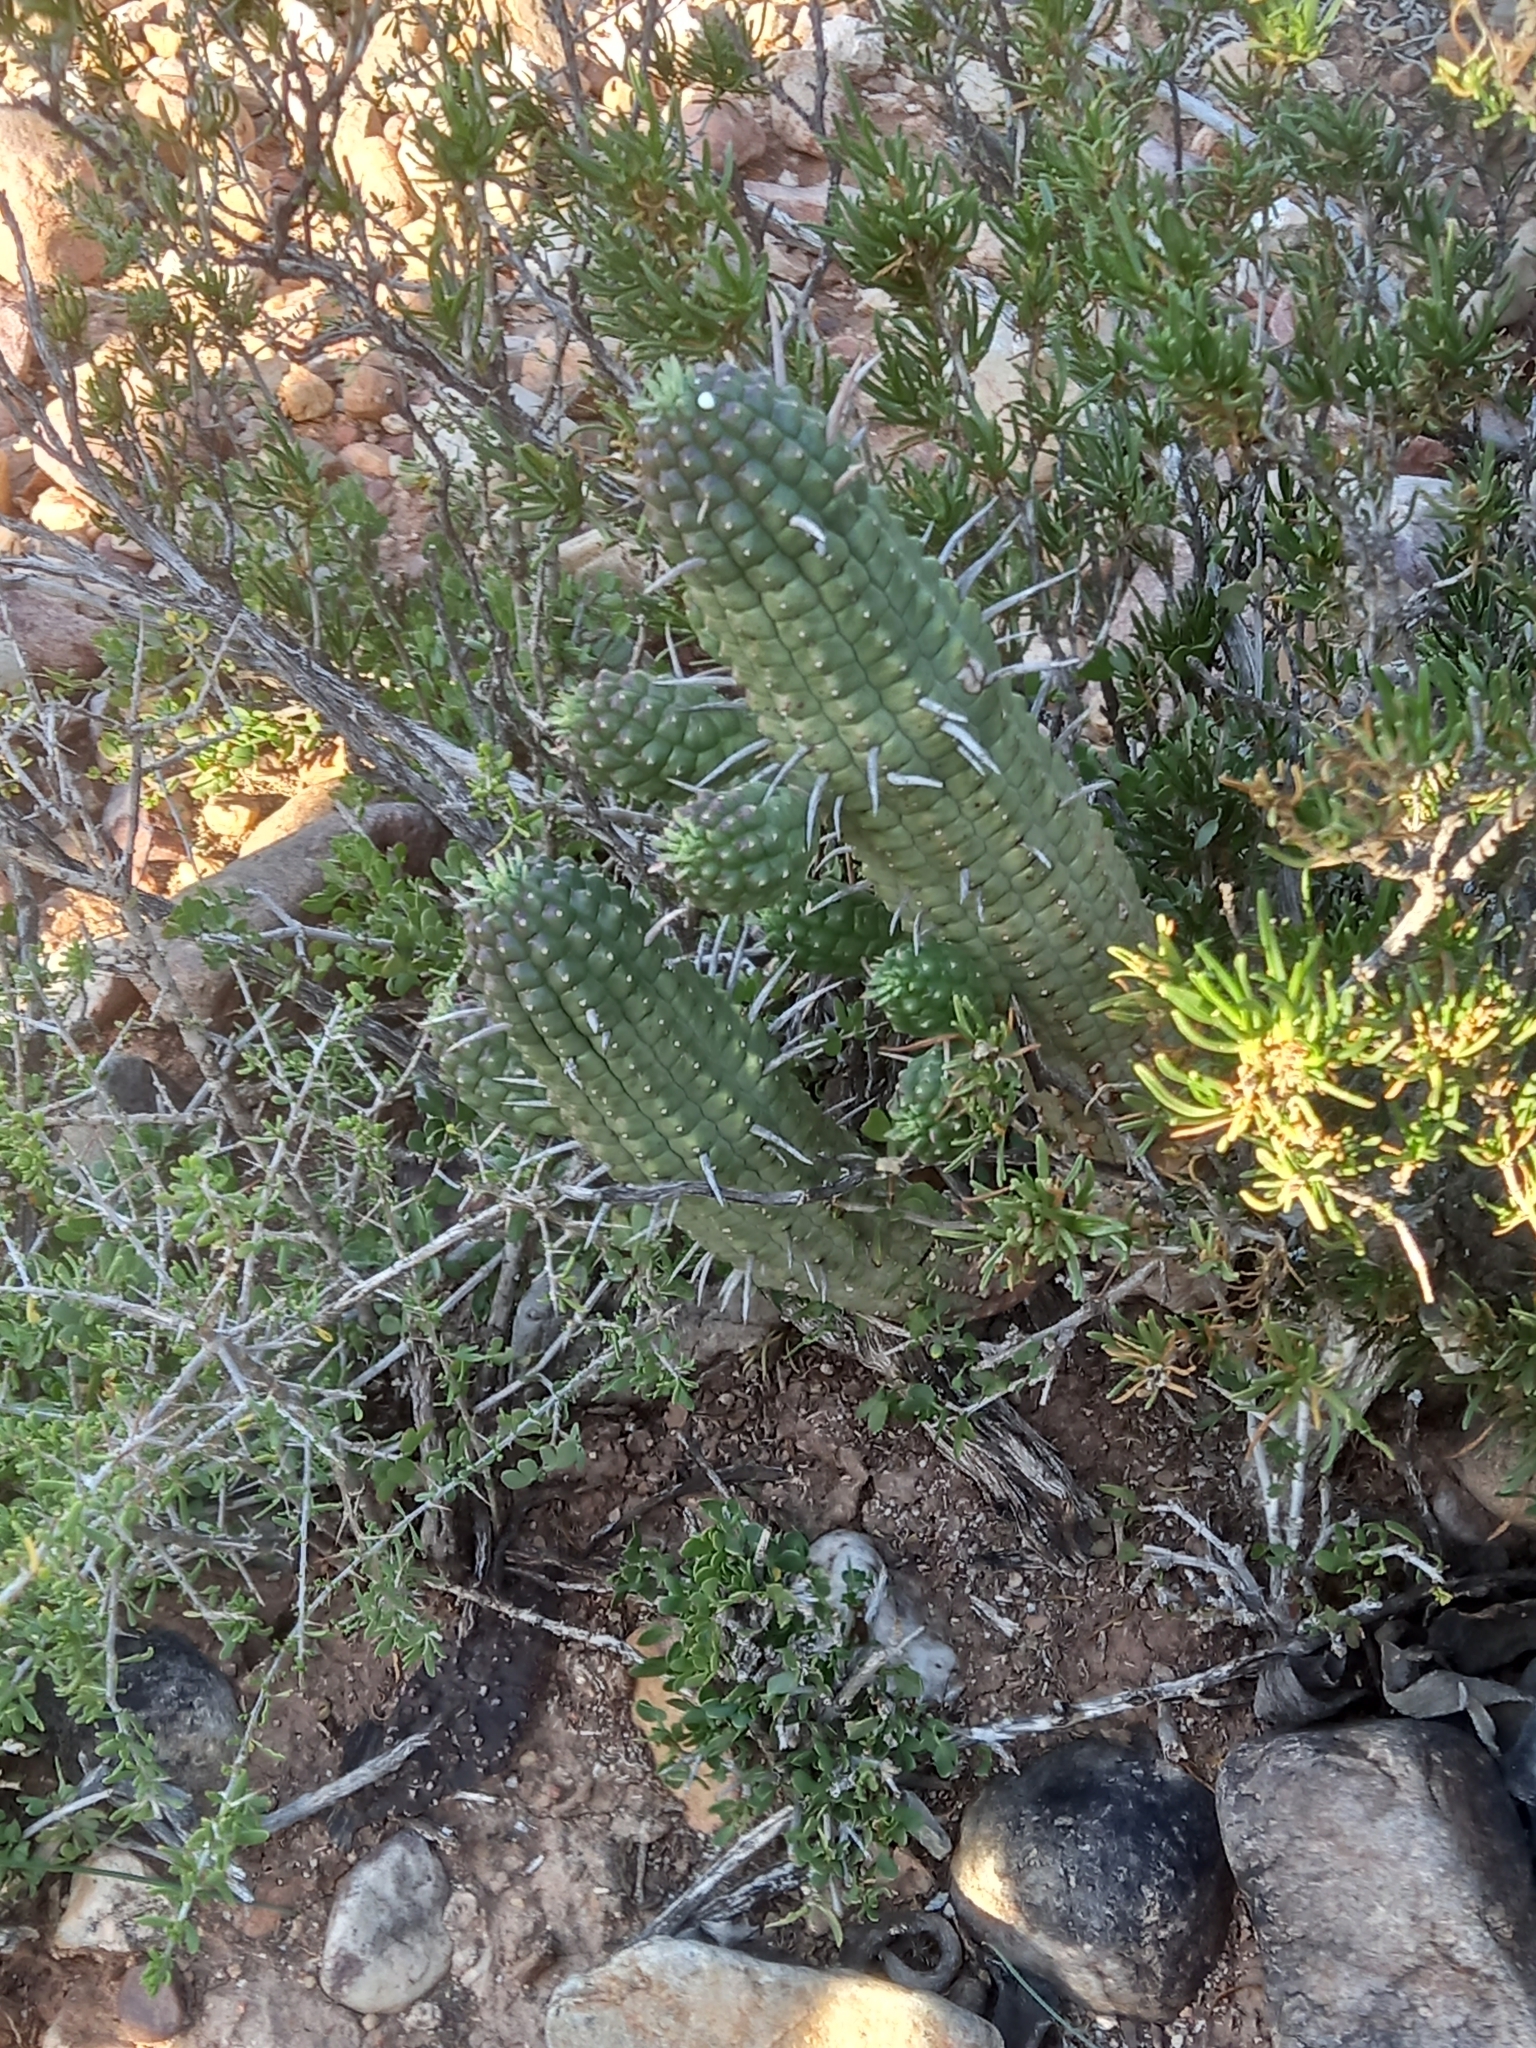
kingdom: Plantae
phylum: Tracheophyta
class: Magnoliopsida
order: Malpighiales
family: Euphorbiaceae
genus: Euphorbia
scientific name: Euphorbia mammillaris
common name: Corkscrew
